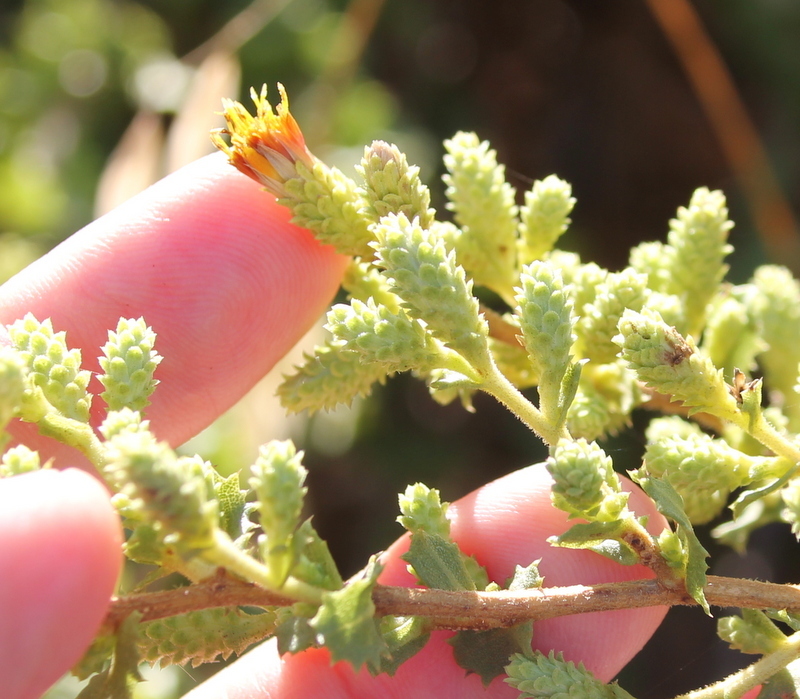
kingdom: Plantae
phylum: Tracheophyta
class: Magnoliopsida
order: Asterales
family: Asteraceae
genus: Hazardia
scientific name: Hazardia squarrosa
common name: Saw-tooth goldenbush
